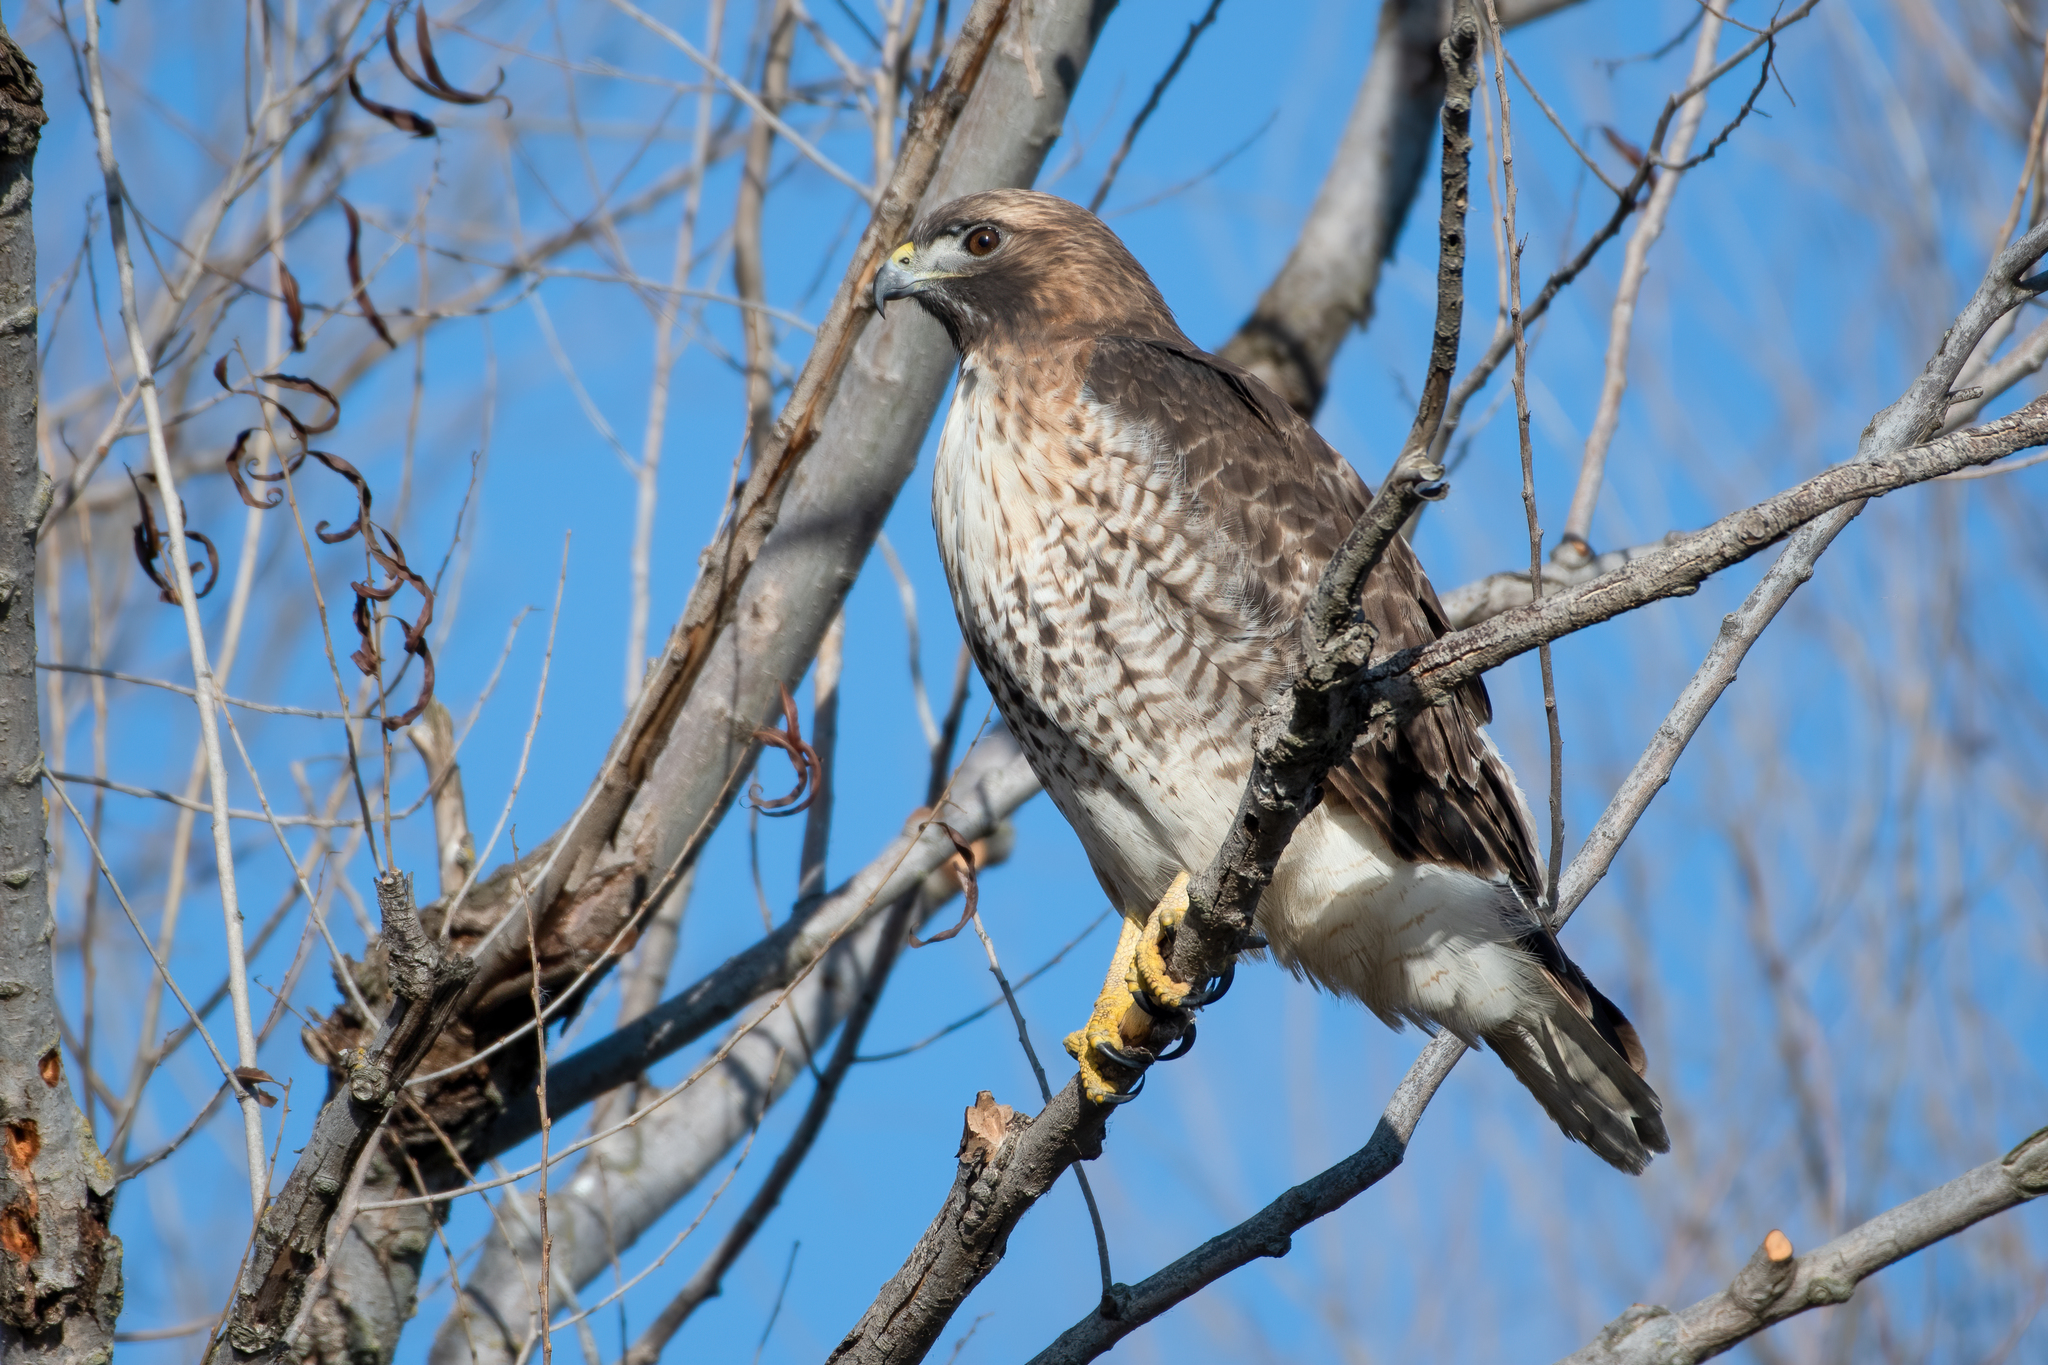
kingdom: Animalia
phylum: Chordata
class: Aves
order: Accipitriformes
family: Accipitridae
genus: Buteo
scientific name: Buteo jamaicensis
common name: Red-tailed hawk
